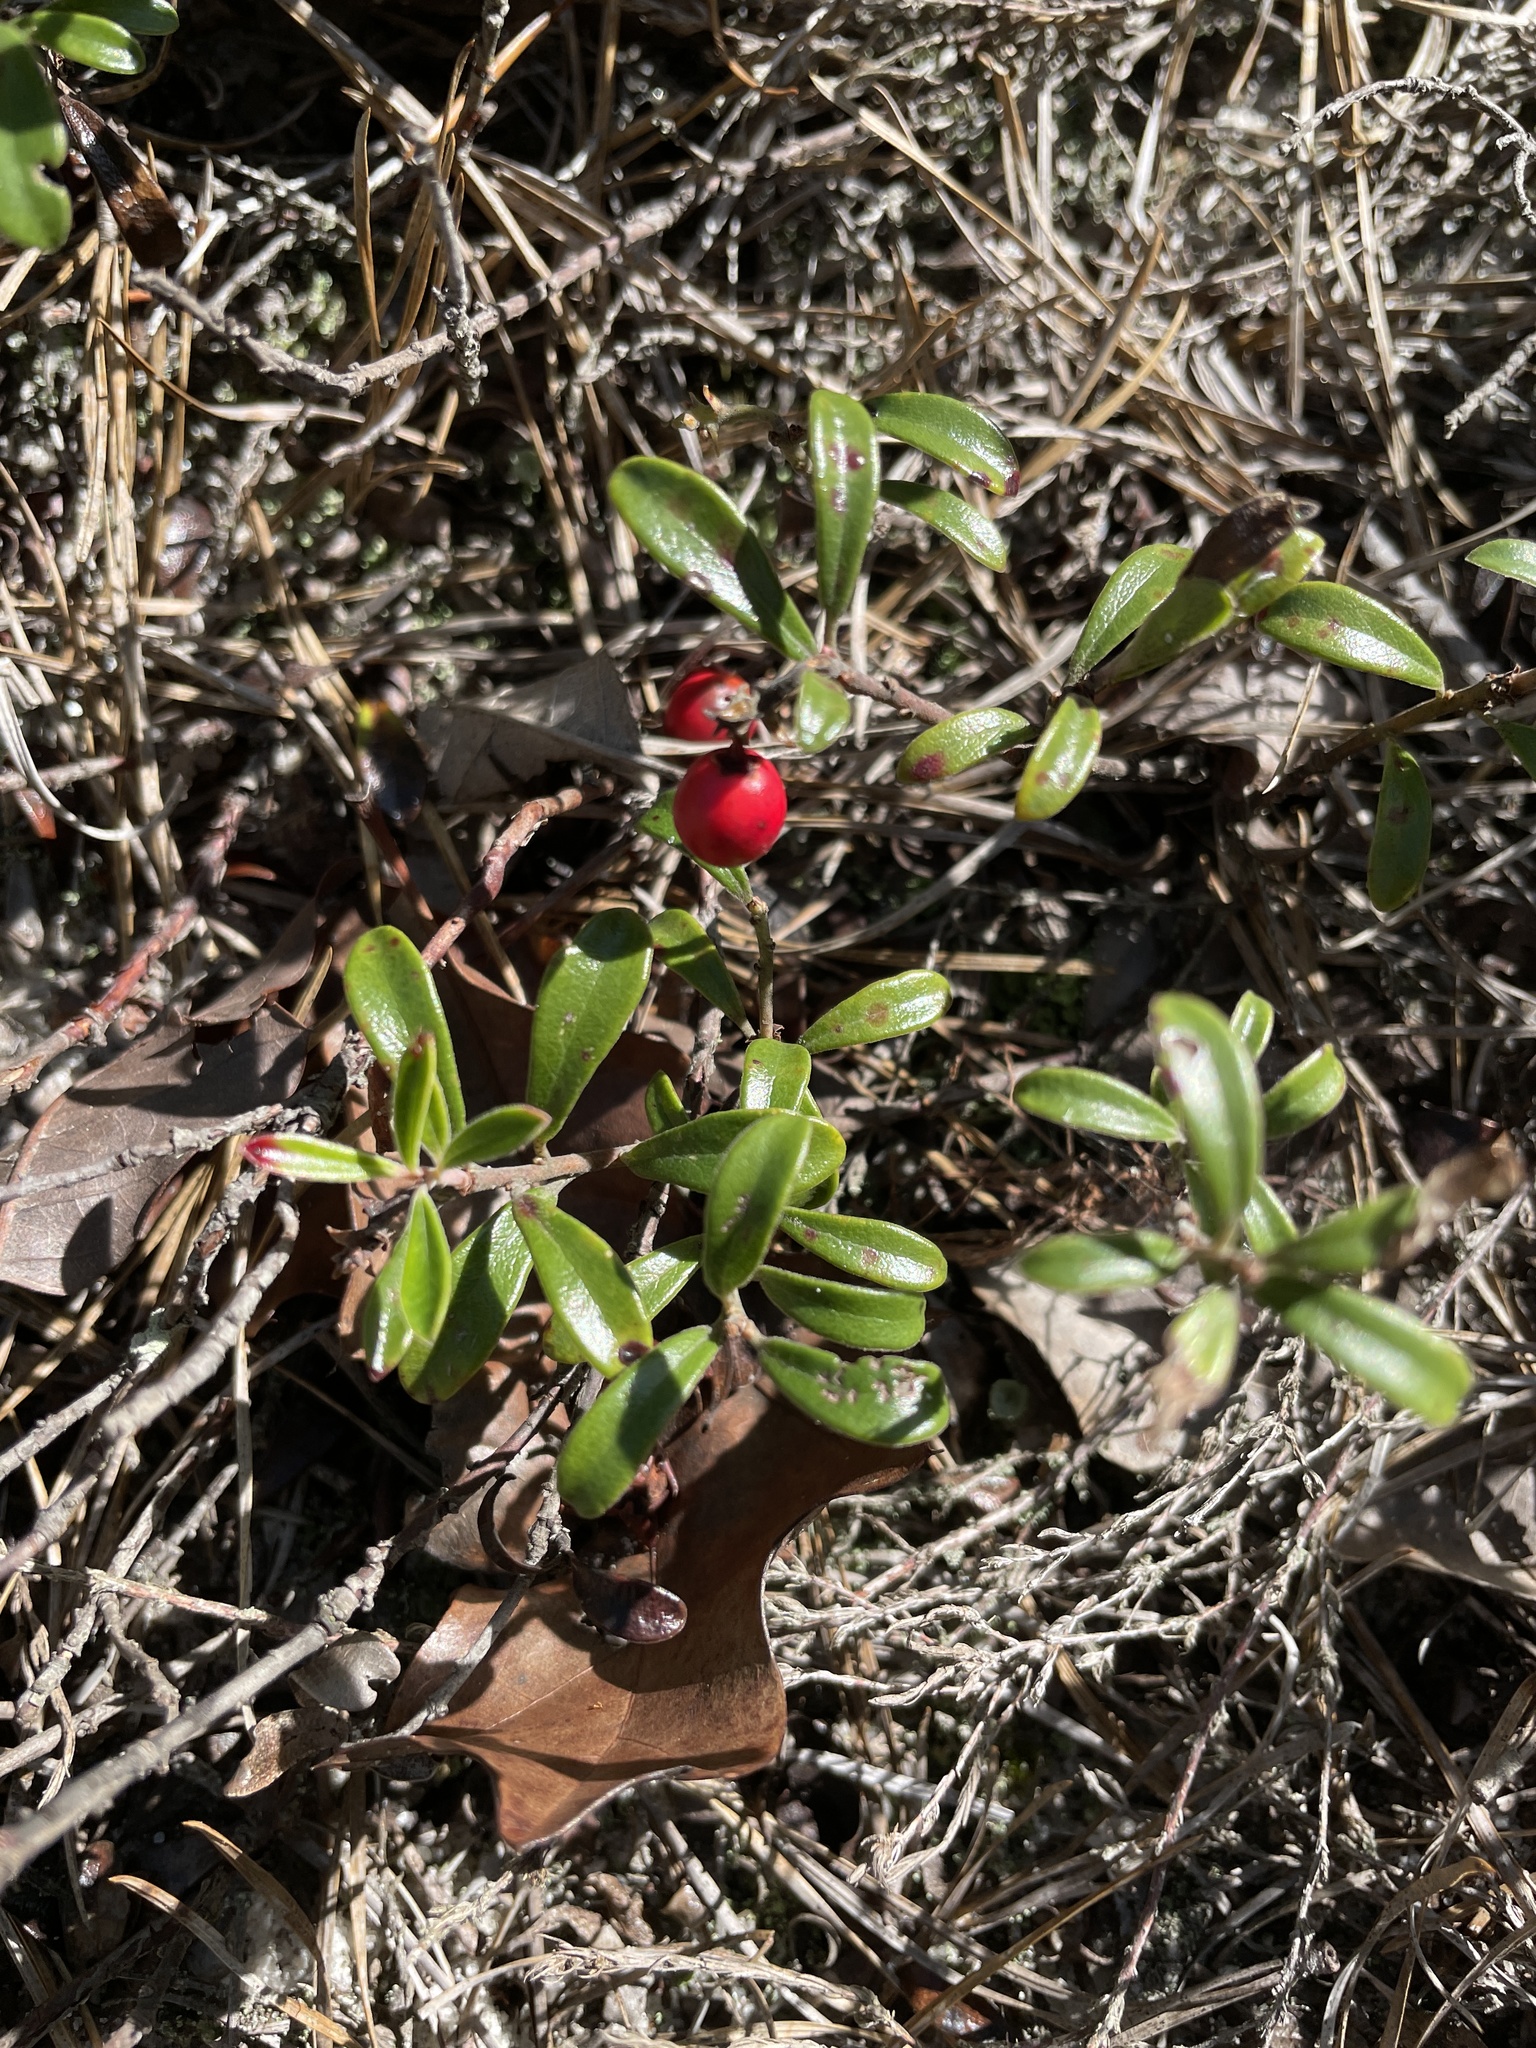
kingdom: Plantae
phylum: Tracheophyta
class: Magnoliopsida
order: Ericales
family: Ericaceae
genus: Arctostaphylos
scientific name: Arctostaphylos uva-ursi
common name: Bearberry
